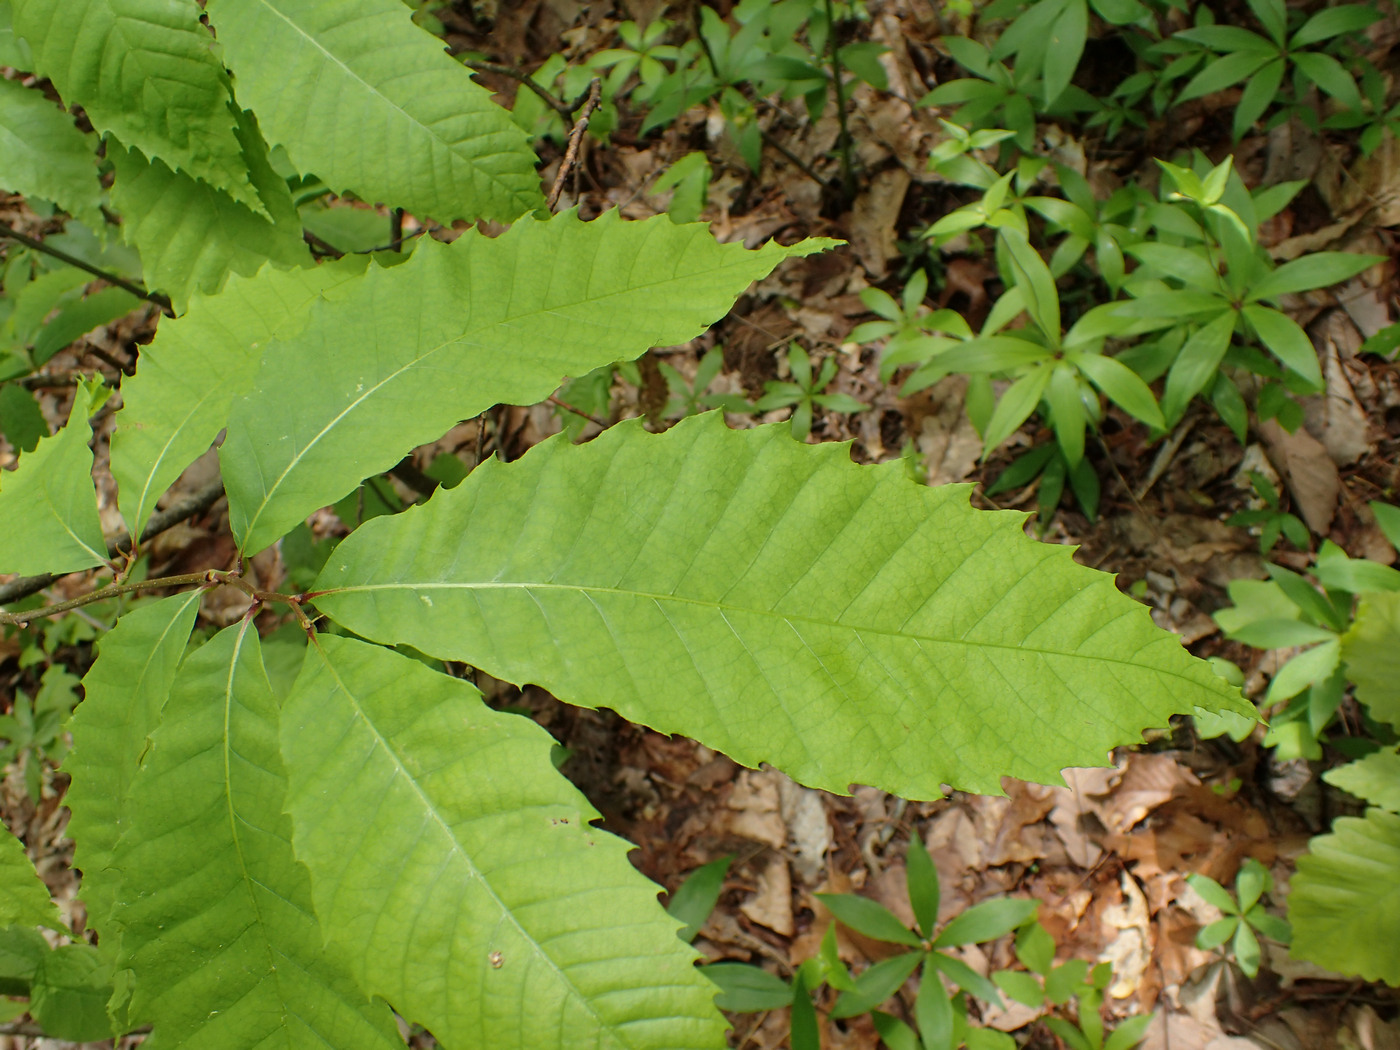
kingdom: Plantae
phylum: Tracheophyta
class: Magnoliopsida
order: Fagales
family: Fagaceae
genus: Castanea
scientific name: Castanea dentata
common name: American chestnut
